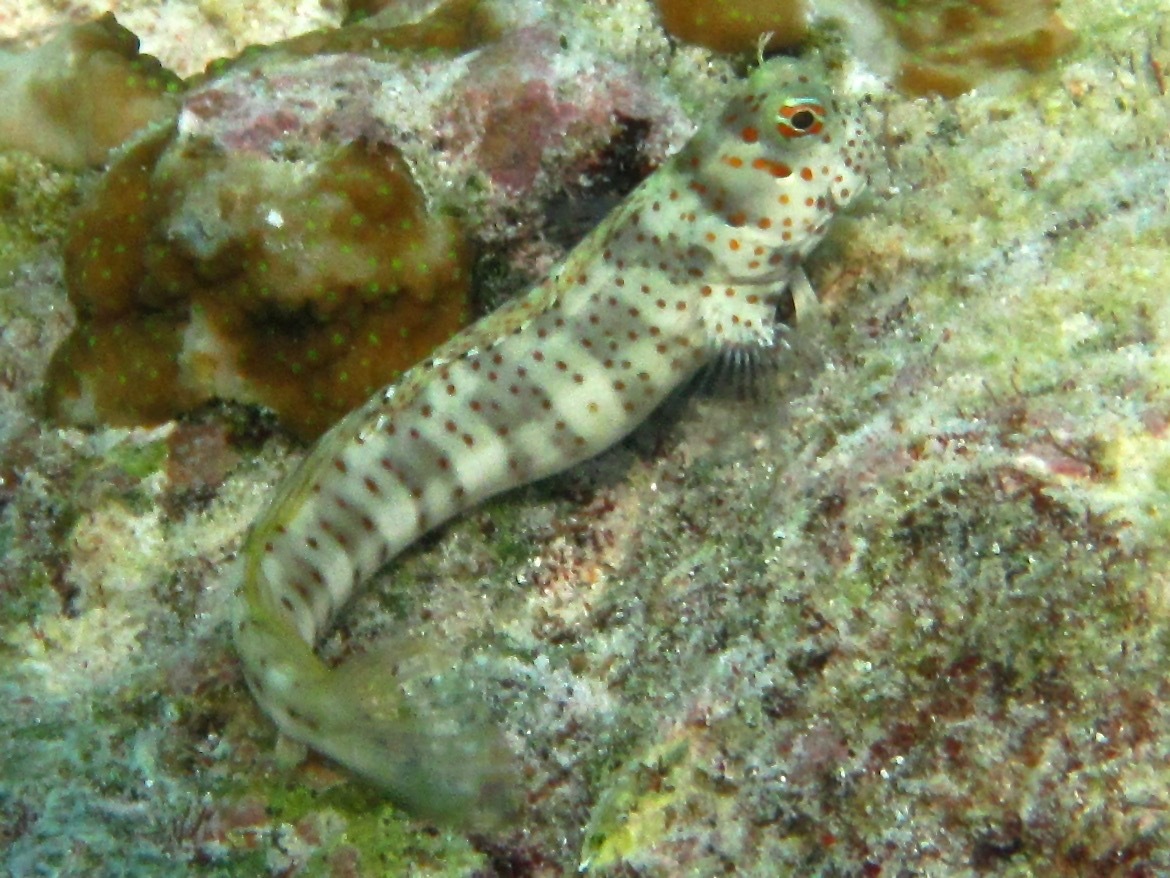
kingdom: Animalia
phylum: Chordata
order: Perciformes
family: Blenniidae
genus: Blenniella
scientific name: Blenniella chrysospilos
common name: Orange-spotted blenny
